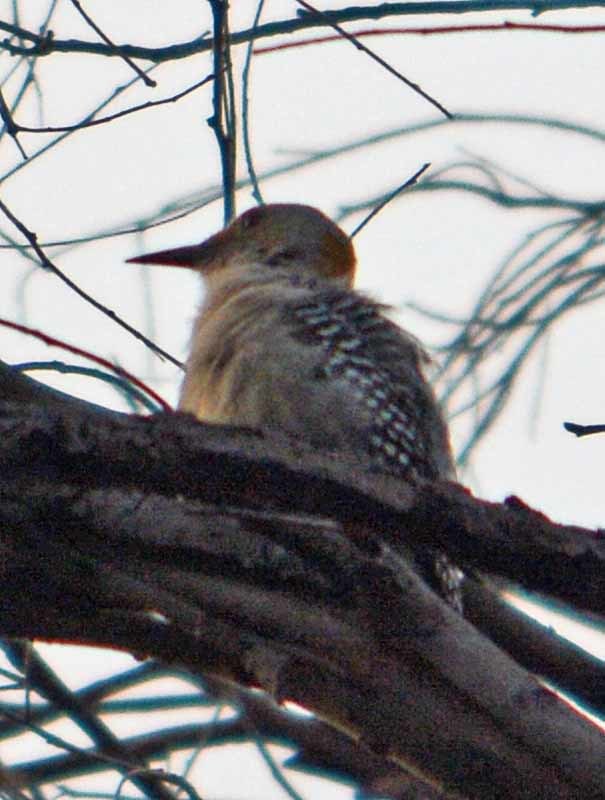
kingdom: Animalia
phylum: Chordata
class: Aves
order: Piciformes
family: Picidae
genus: Melanerpes
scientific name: Melanerpes aurifrons
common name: Golden-fronted woodpecker
